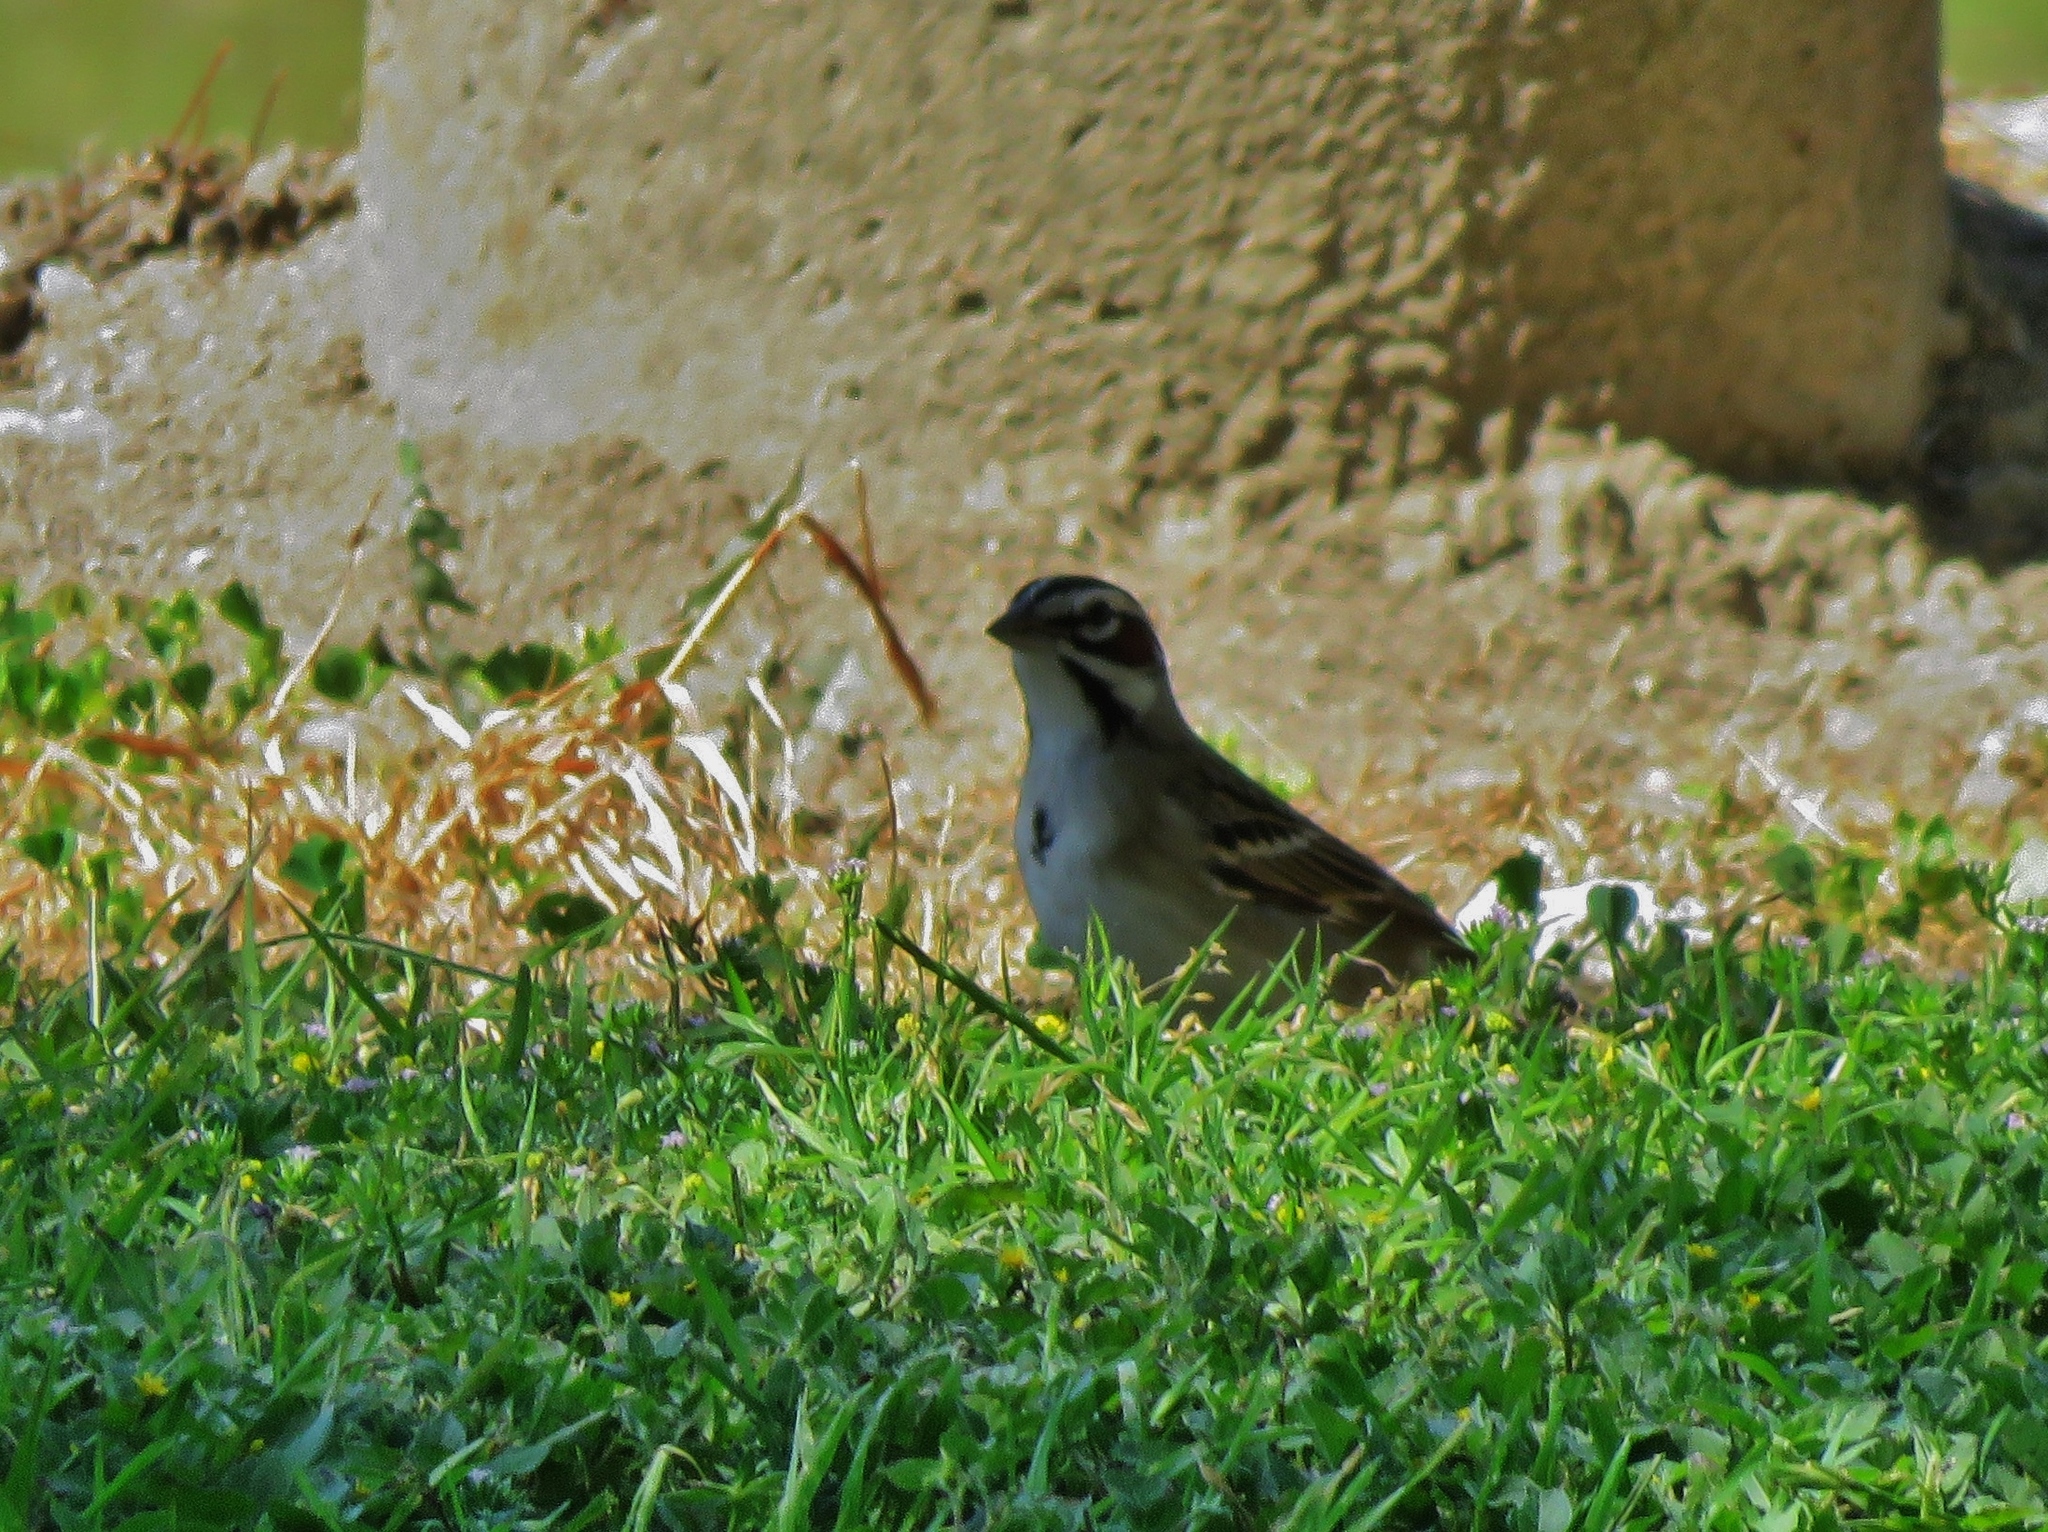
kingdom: Animalia
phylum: Chordata
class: Aves
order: Passeriformes
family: Passerellidae
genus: Chondestes
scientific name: Chondestes grammacus
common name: Lark sparrow
